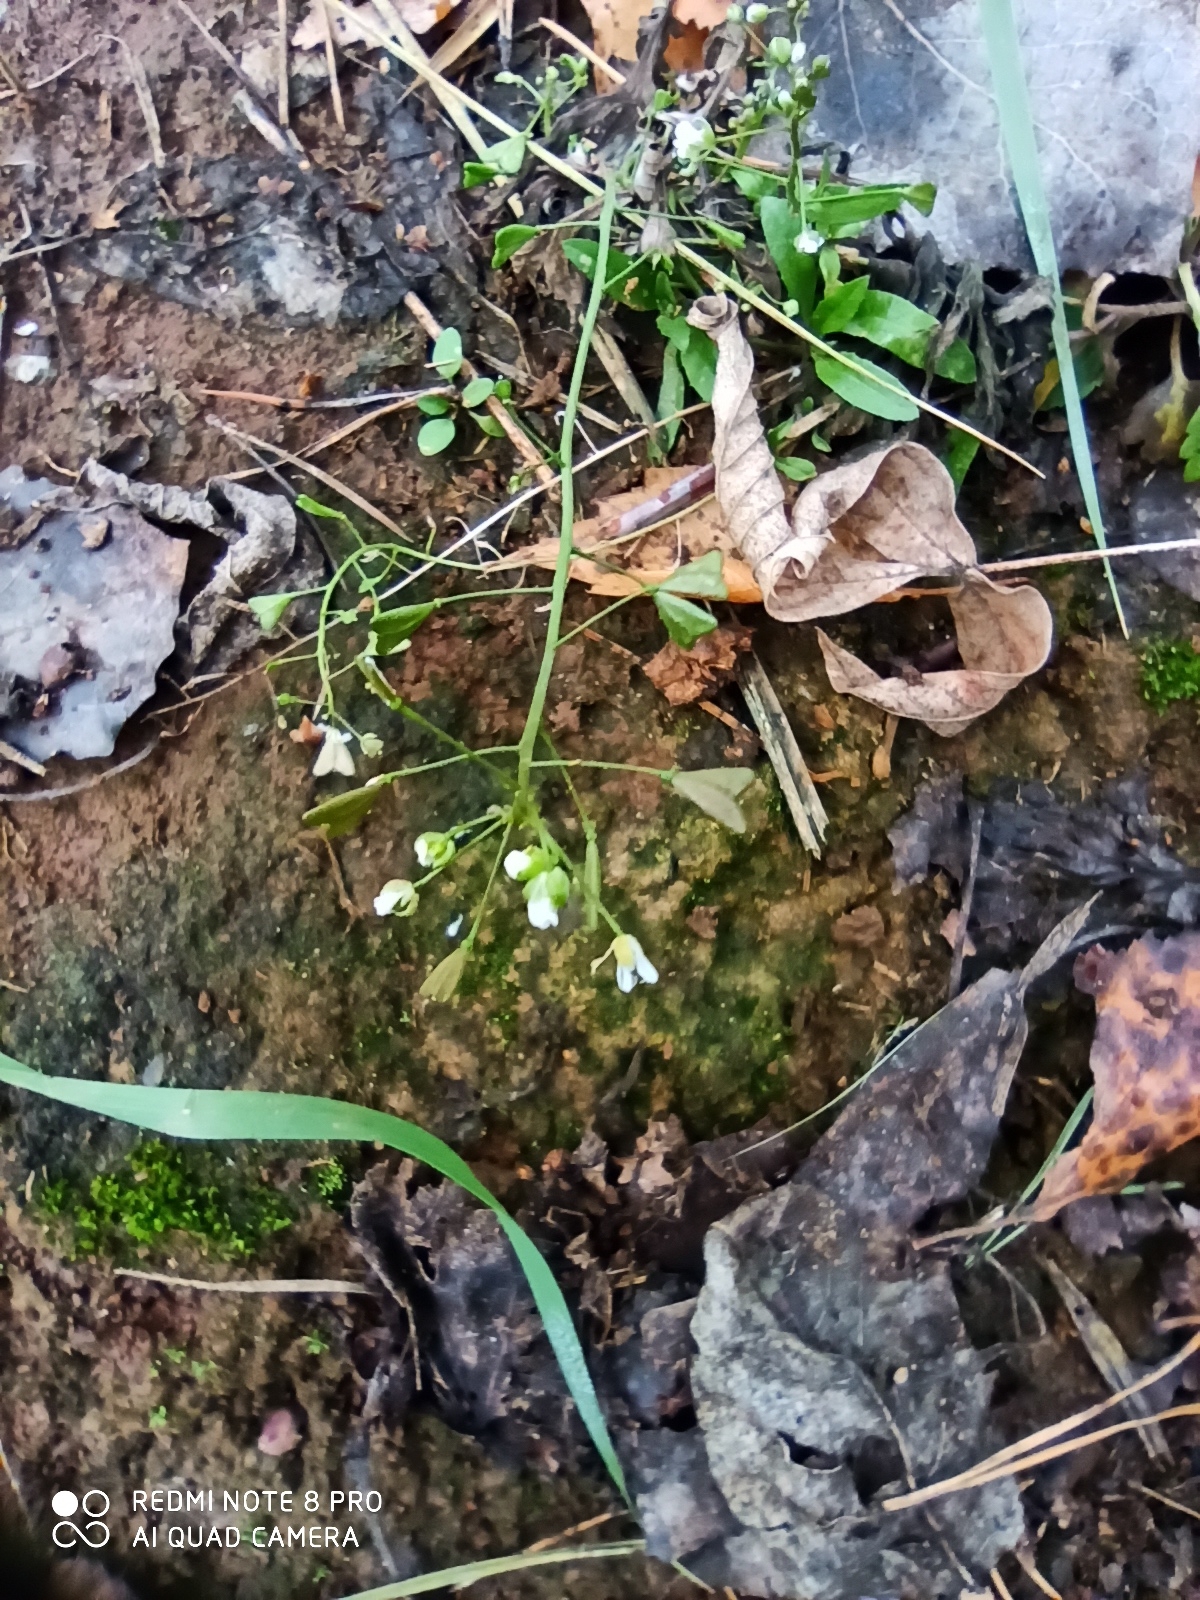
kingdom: Plantae
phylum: Tracheophyta
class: Magnoliopsida
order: Brassicales
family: Brassicaceae
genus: Capsella
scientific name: Capsella bursa-pastoris
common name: Shepherd's purse
